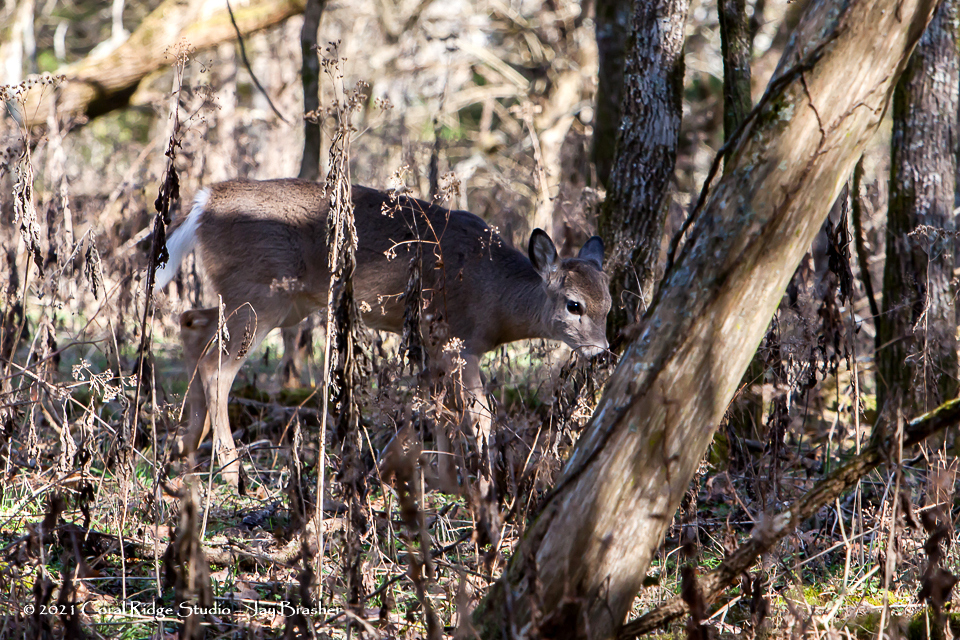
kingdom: Animalia
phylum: Chordata
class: Mammalia
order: Artiodactyla
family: Cervidae
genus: Odocoileus
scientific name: Odocoileus virginianus
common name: White-tailed deer
